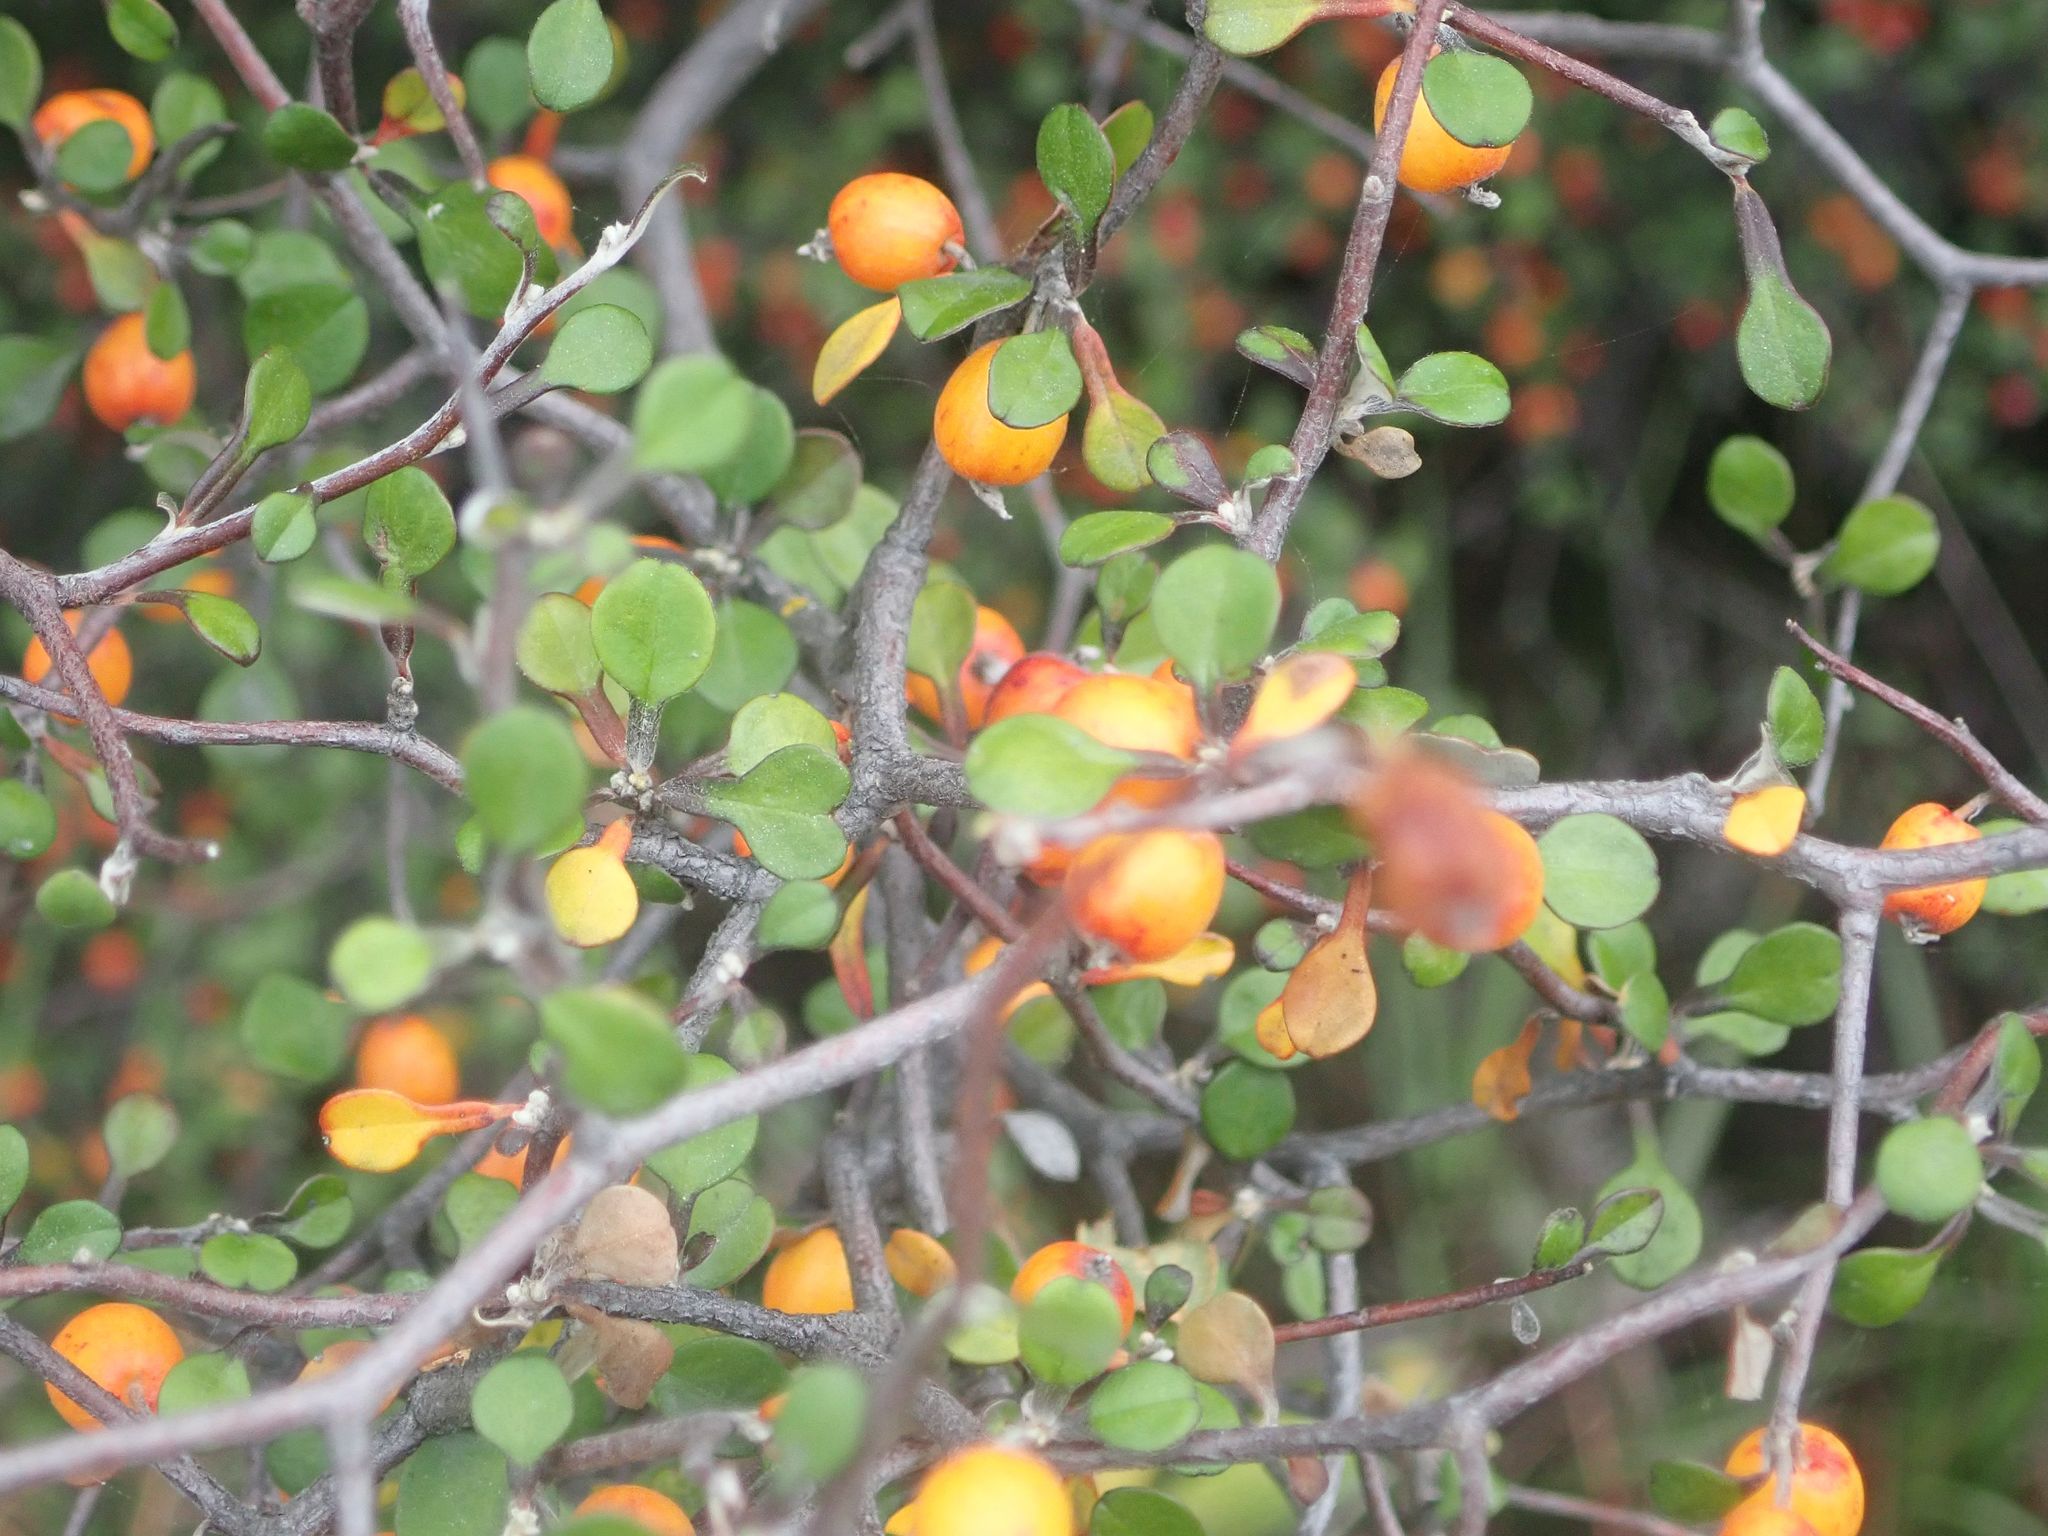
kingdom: Plantae
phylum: Tracheophyta
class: Magnoliopsida
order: Asterales
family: Argophyllaceae
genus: Corokia
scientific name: Corokia cotoneaster
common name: Wire nettingbush
